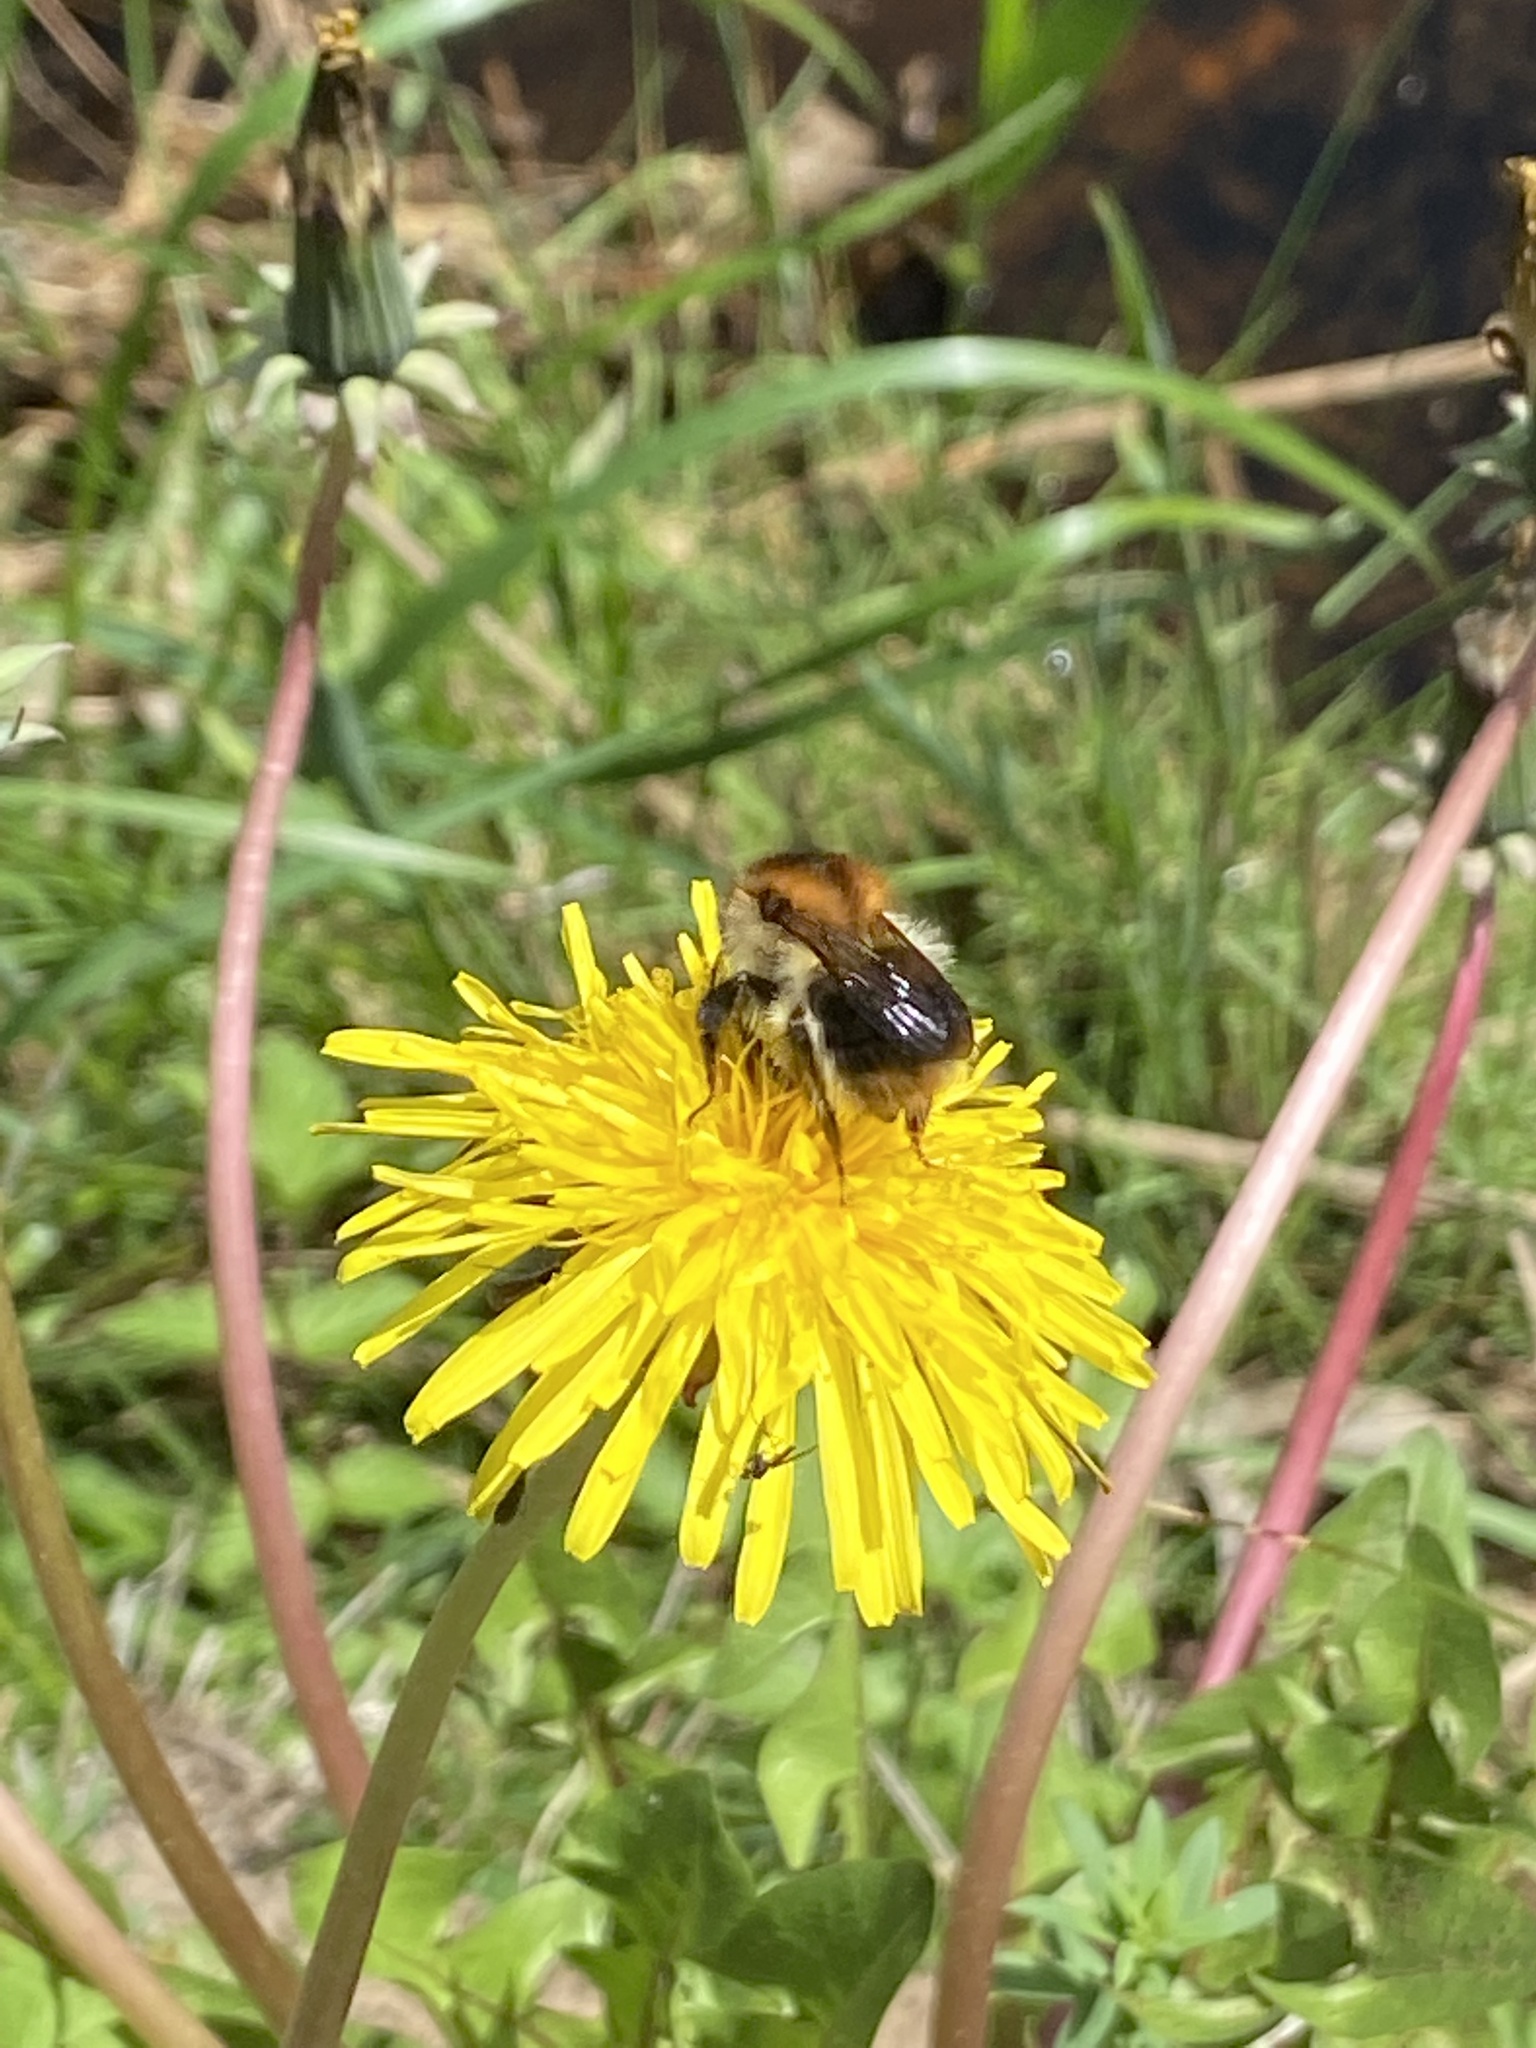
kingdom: Animalia
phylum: Arthropoda
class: Insecta
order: Hymenoptera
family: Apidae
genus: Bombus
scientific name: Bombus pascuorum
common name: Common carder bee
